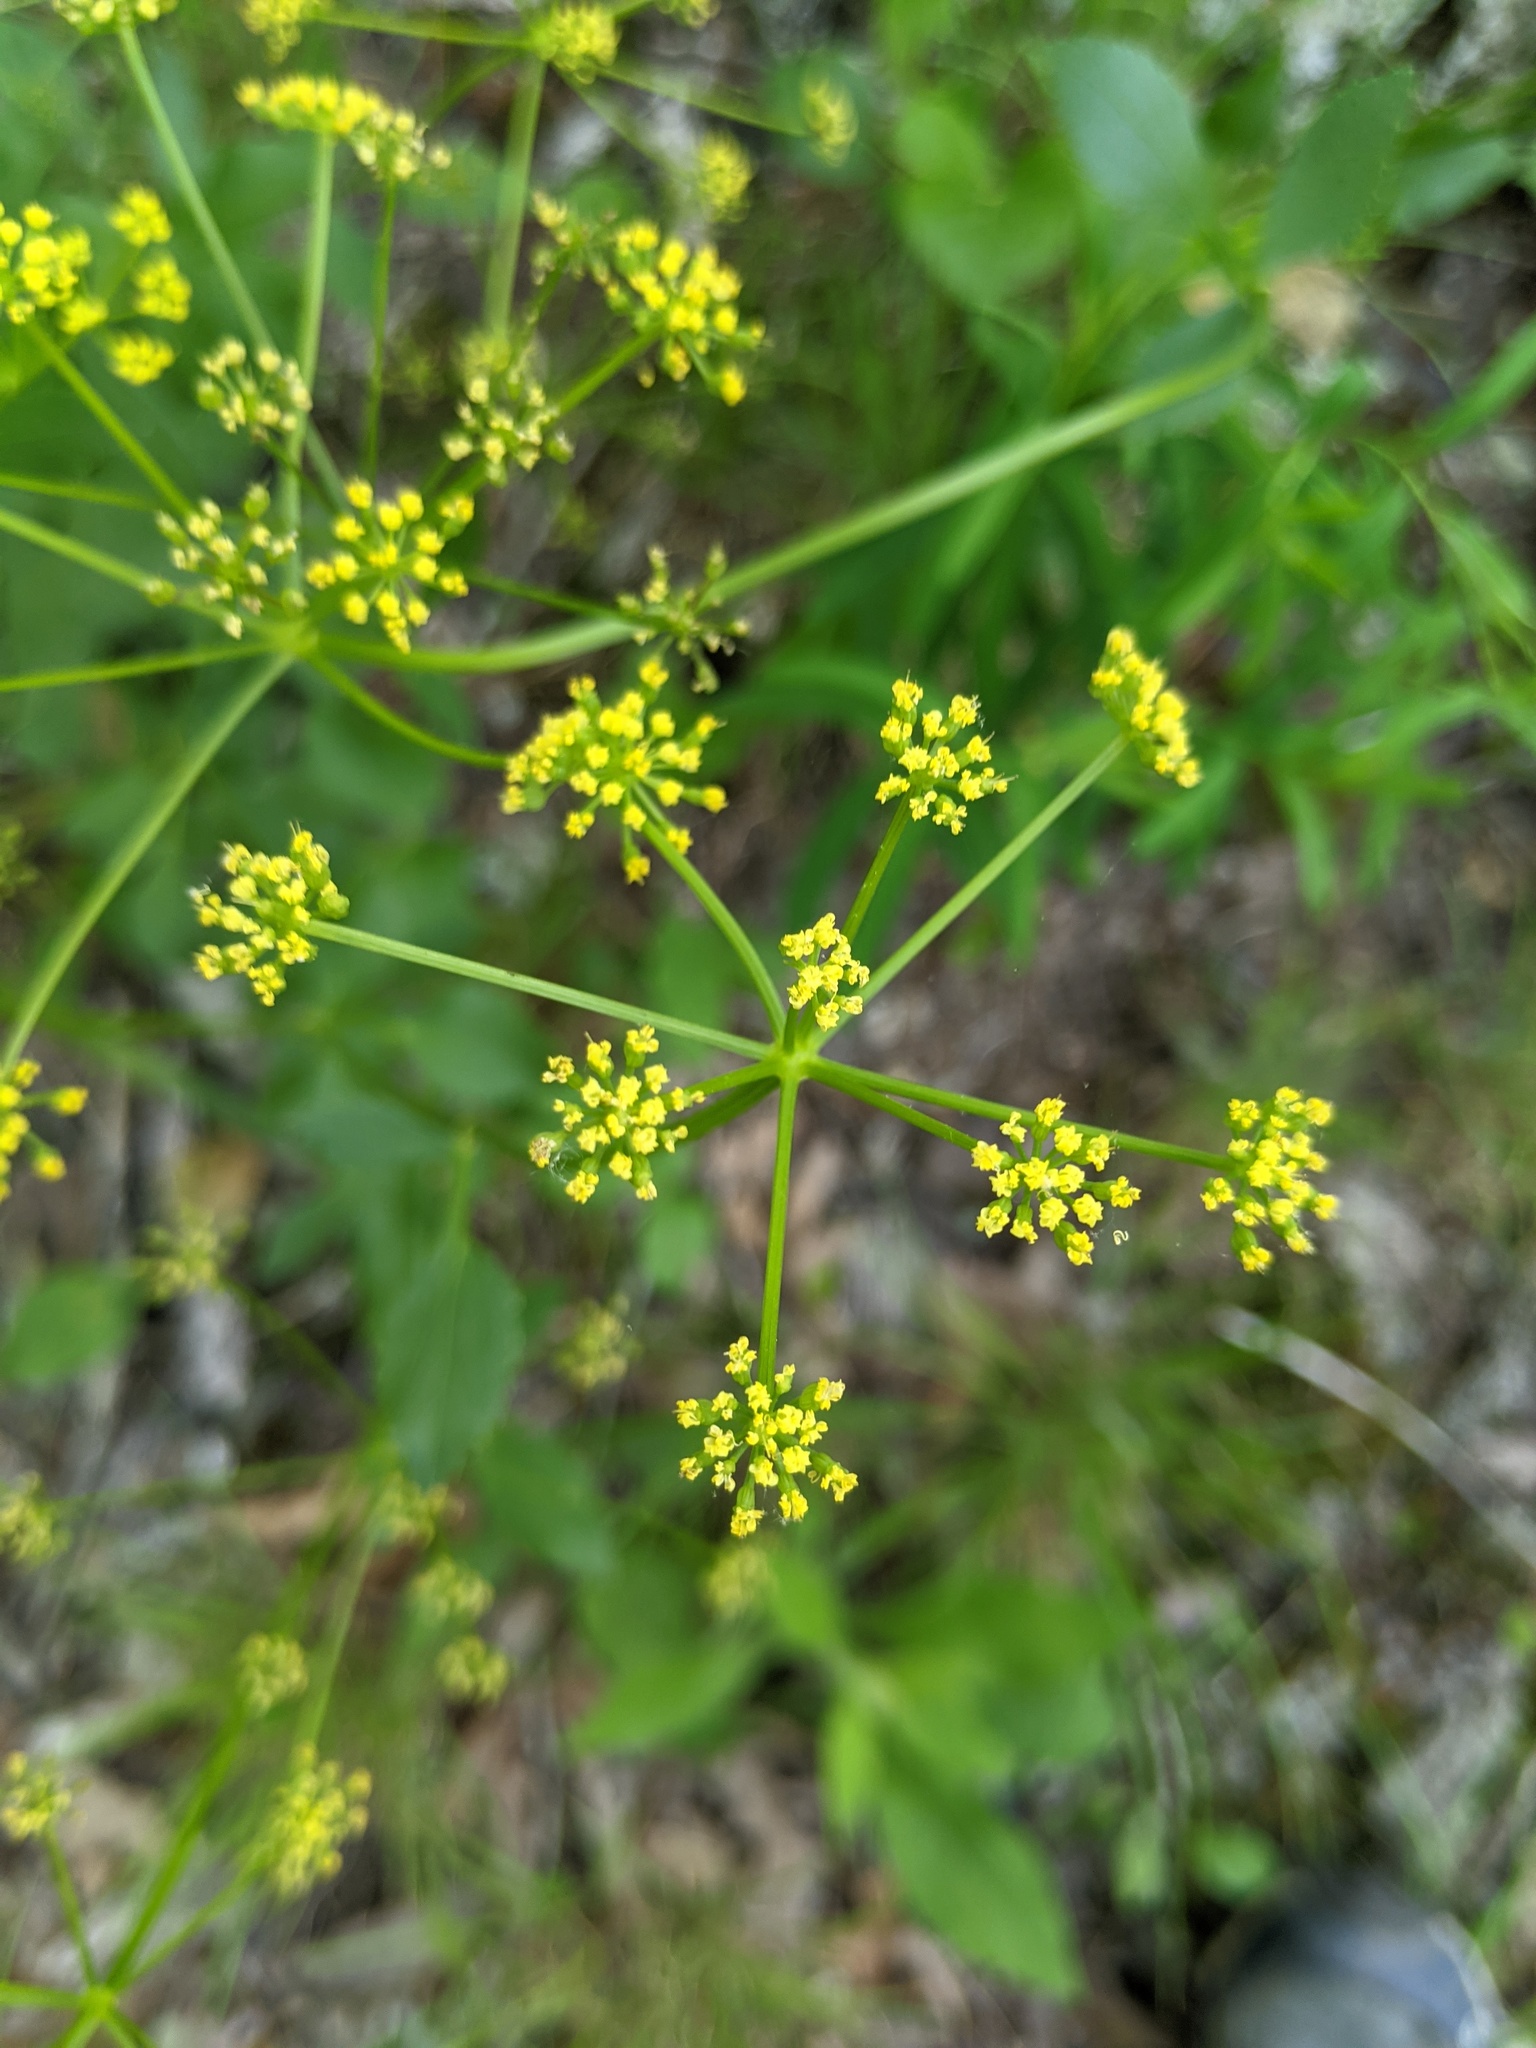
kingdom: Plantae
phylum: Tracheophyta
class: Magnoliopsida
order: Apiales
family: Apiaceae
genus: Zizia
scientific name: Zizia aurea
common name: Golden alexanders
